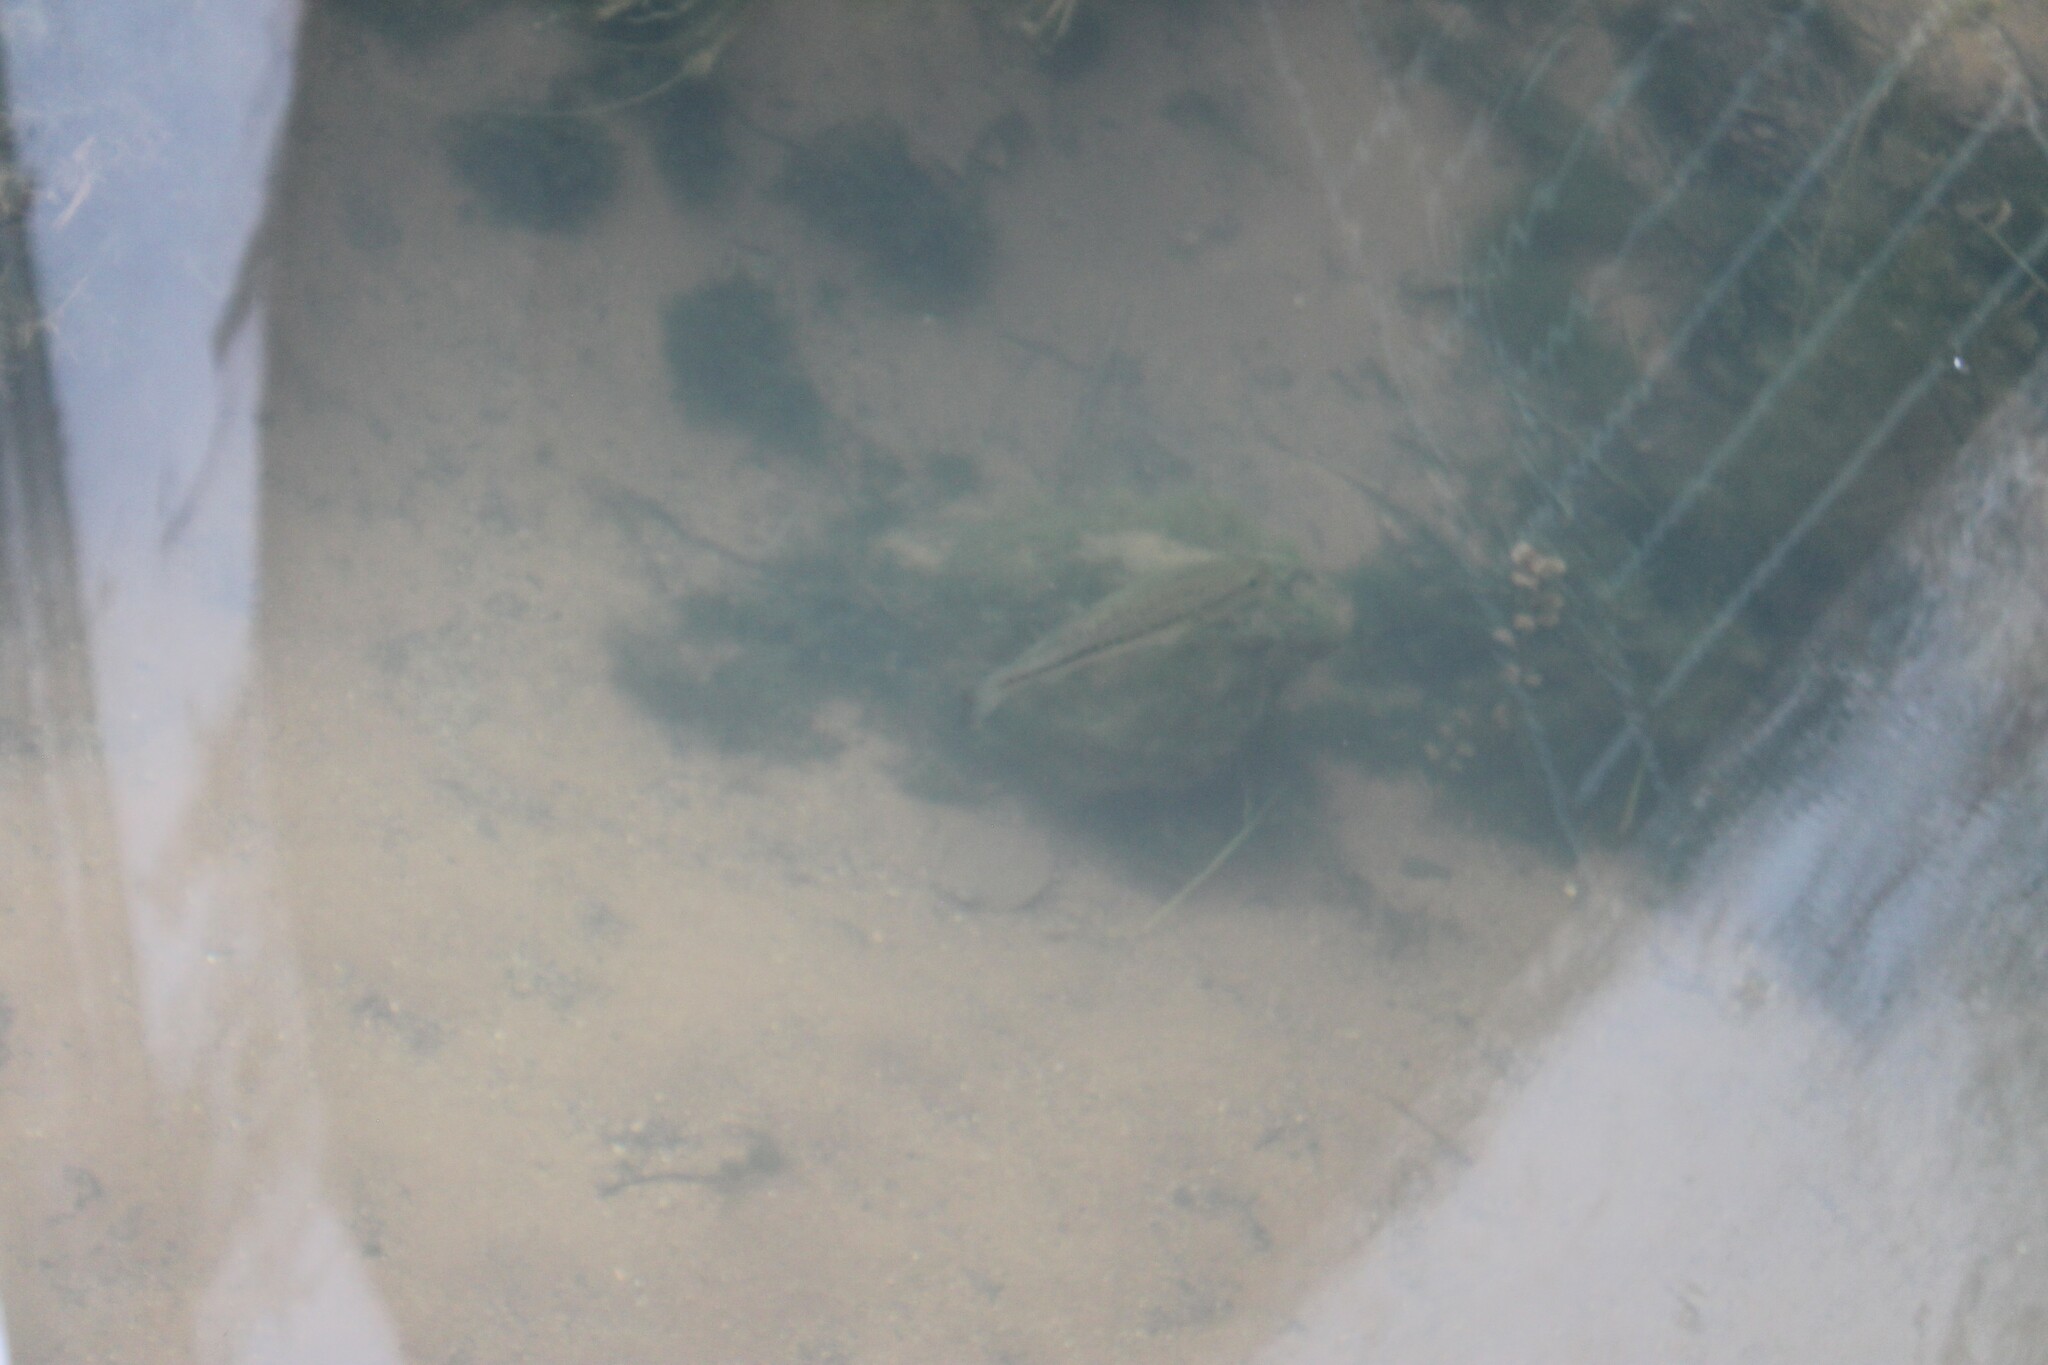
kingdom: Animalia
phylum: Chordata
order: Perciformes
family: Centrarchidae
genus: Micropterus
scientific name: Micropterus
